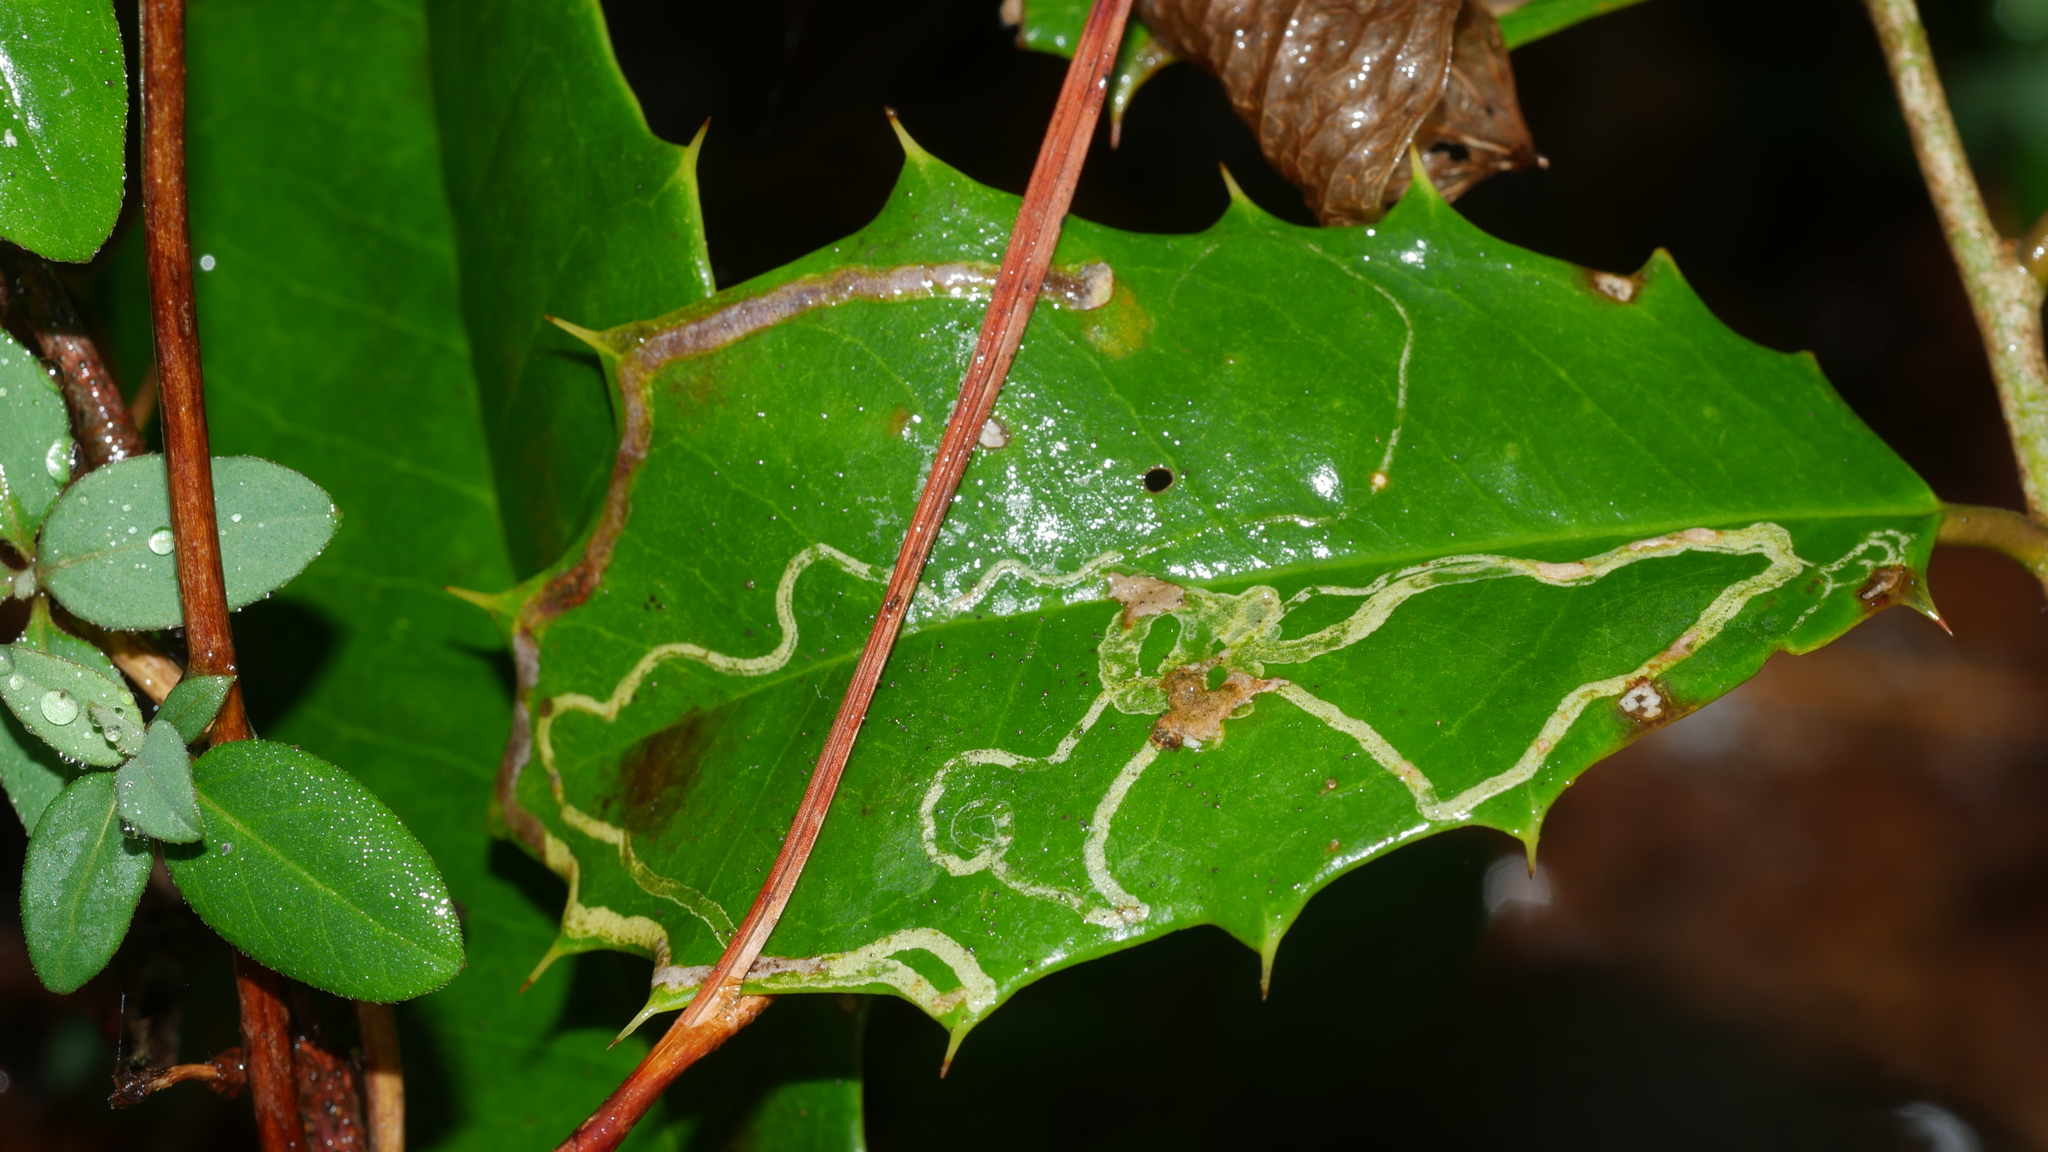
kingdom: Animalia
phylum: Arthropoda
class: Insecta
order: Diptera
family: Agromyzidae
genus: Phytomyza
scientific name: Phytomyza opacae
